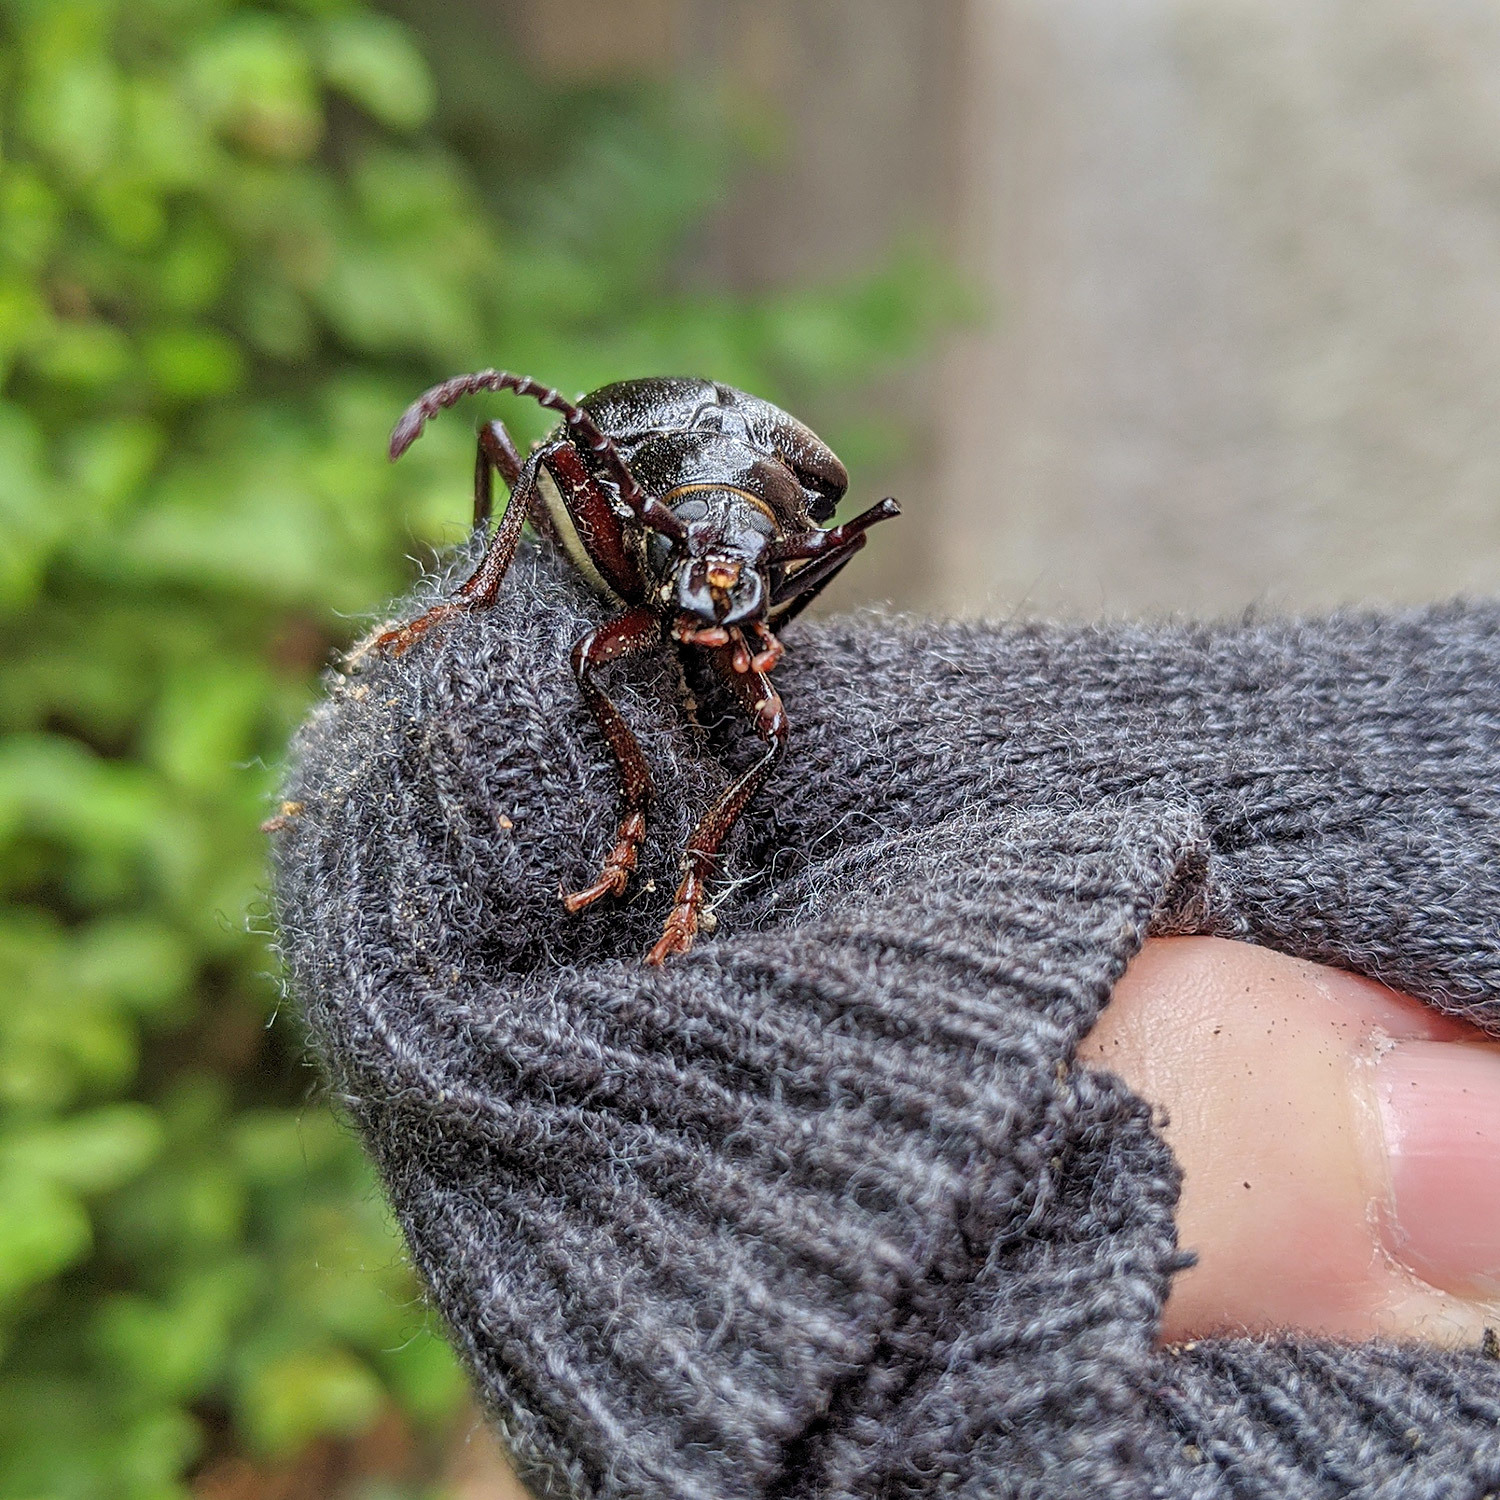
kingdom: Animalia
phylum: Arthropoda
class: Insecta
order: Coleoptera
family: Cerambycidae
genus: Prionus
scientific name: Prionus coriarius
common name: Tanner beetle
